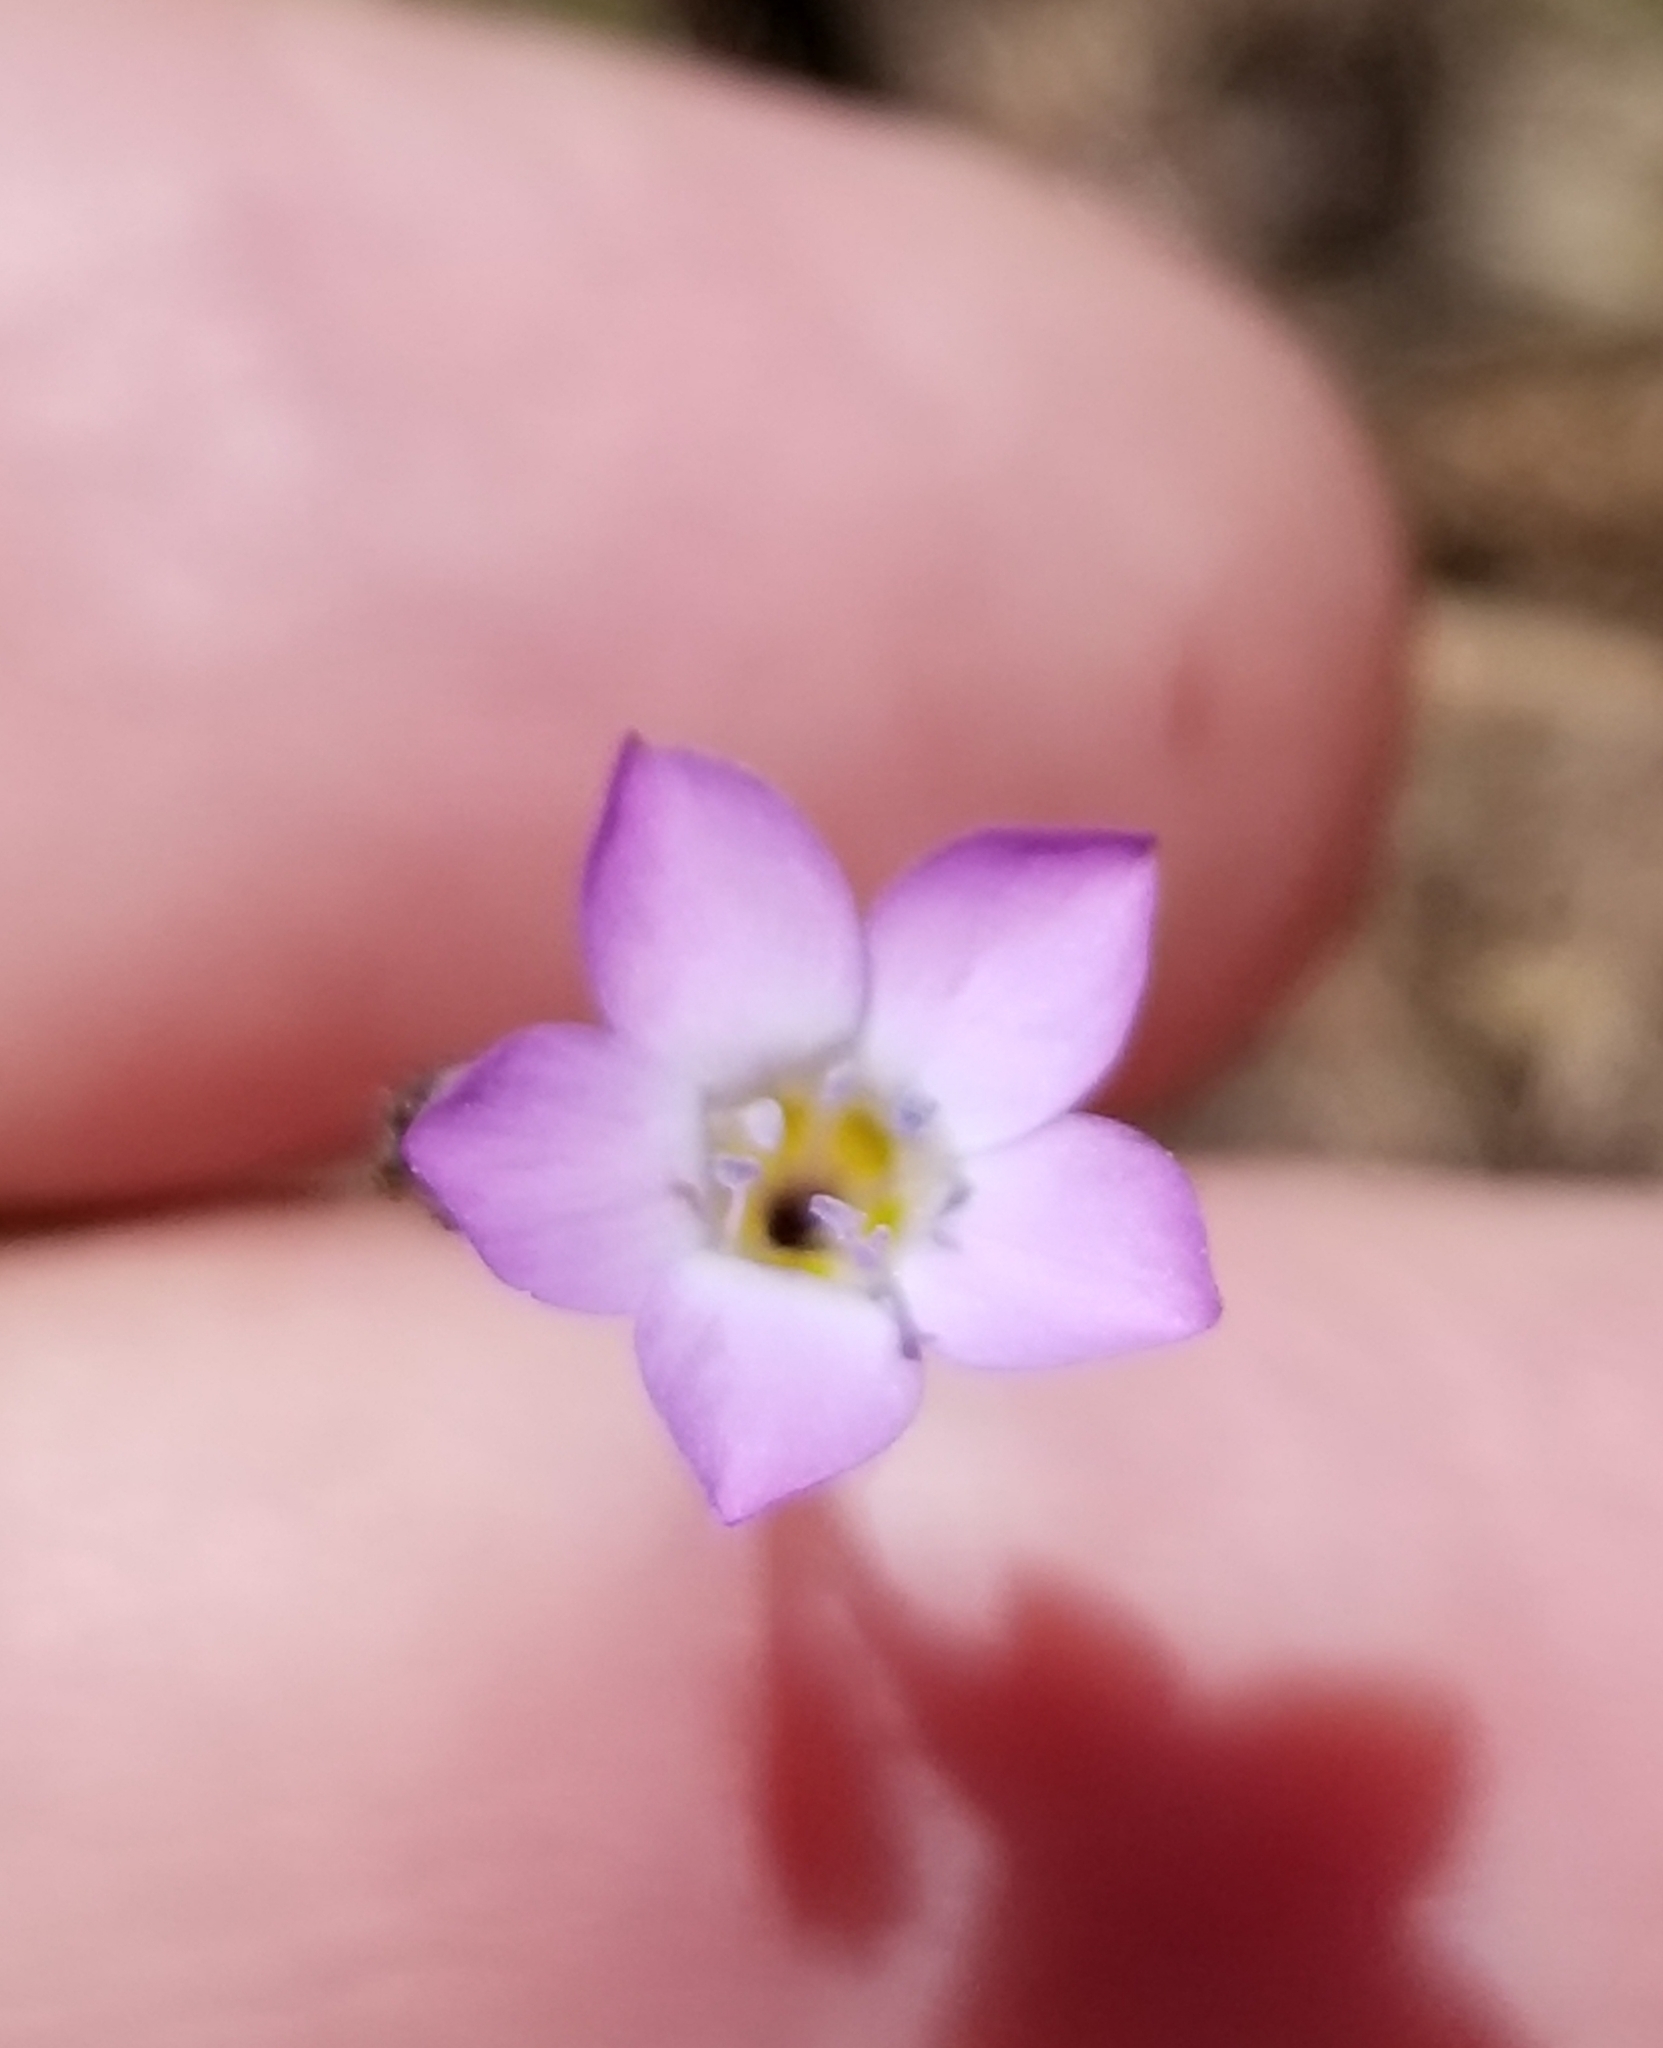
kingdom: Plantae
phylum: Tracheophyta
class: Magnoliopsida
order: Ericales
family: Polemoniaceae
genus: Gilia
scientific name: Gilia diegensis
